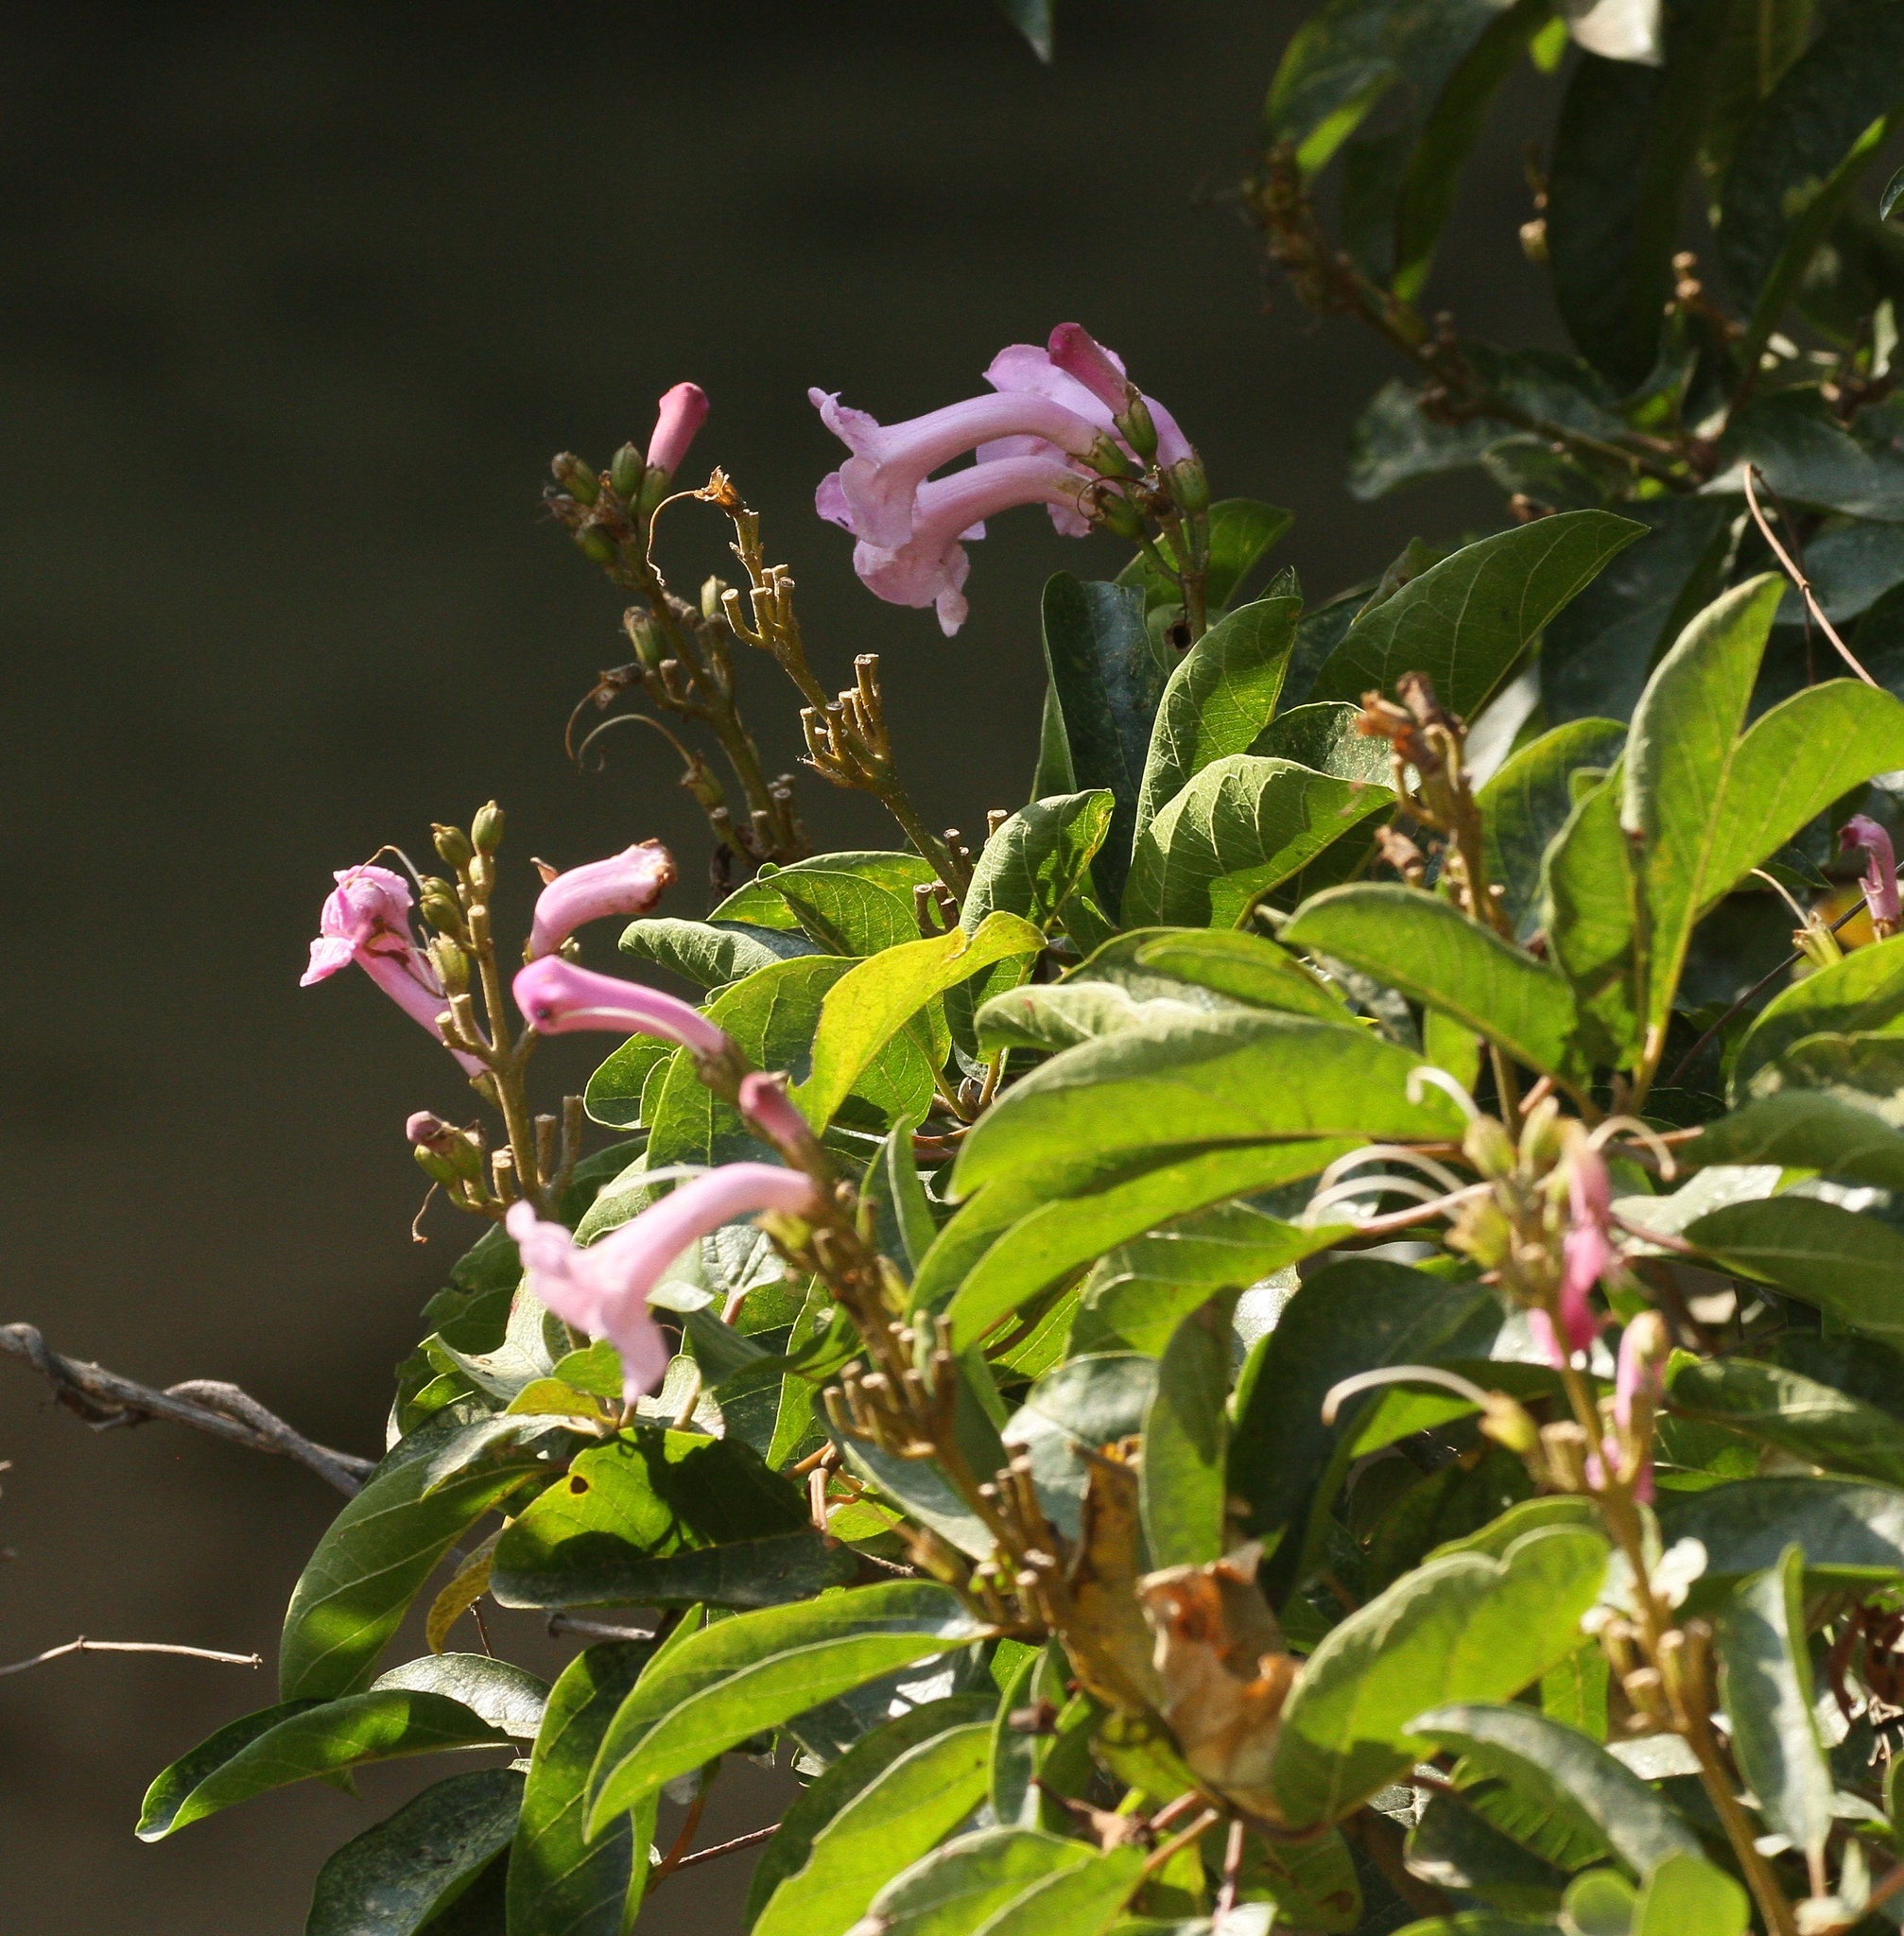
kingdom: Plantae
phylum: Tracheophyta
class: Magnoliopsida
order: Lamiales
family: Bignoniaceae
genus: Delostoma
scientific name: Delostoma integrifolium
